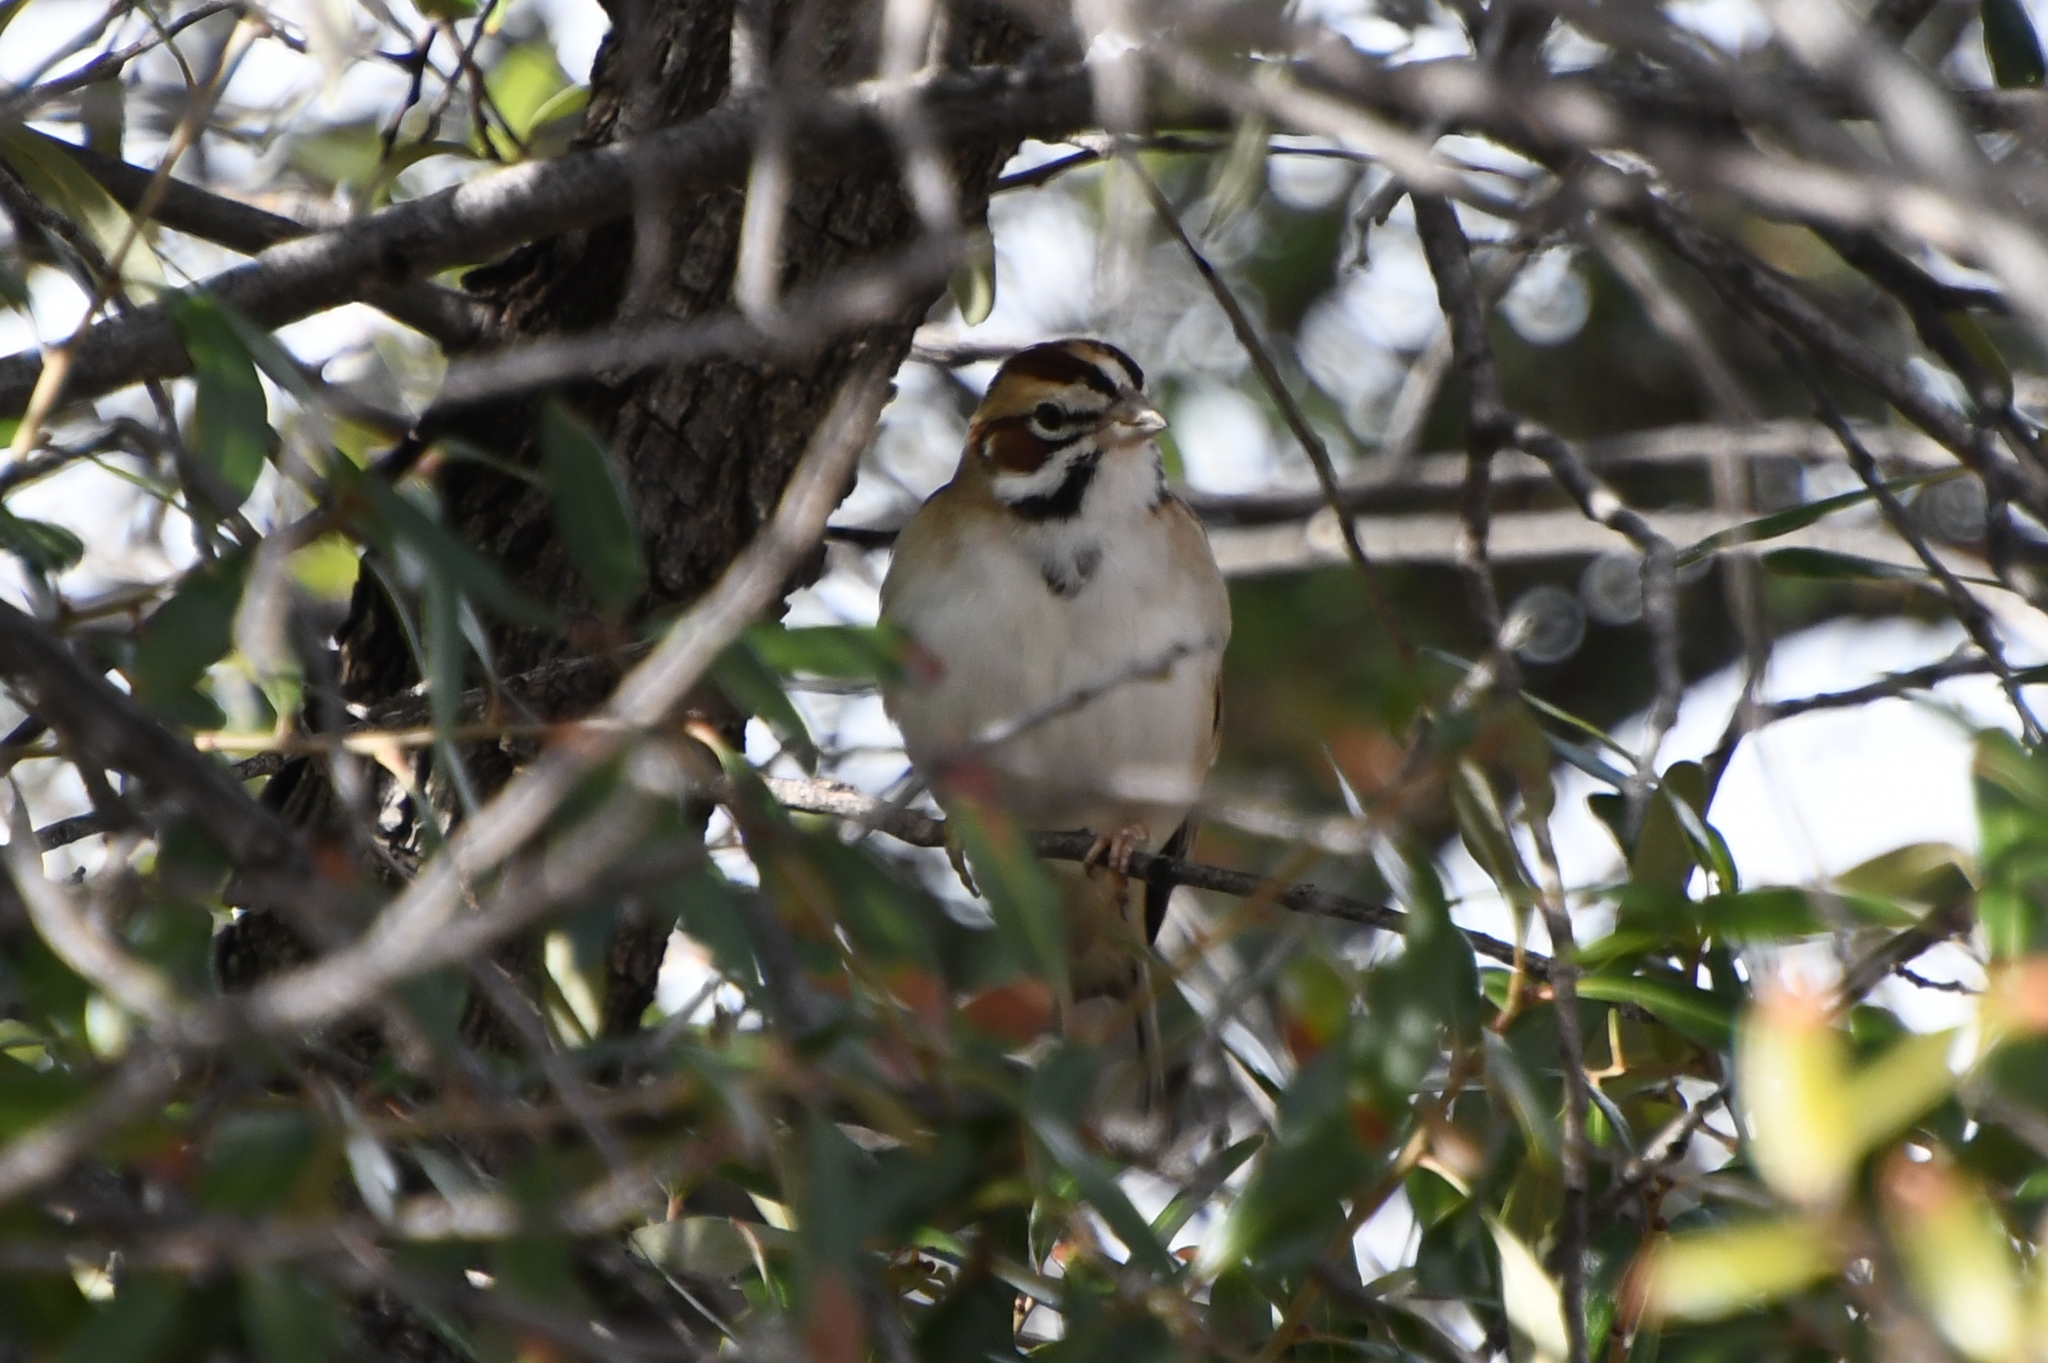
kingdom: Animalia
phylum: Chordata
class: Aves
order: Passeriformes
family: Passerellidae
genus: Chondestes
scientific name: Chondestes grammacus
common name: Lark sparrow
